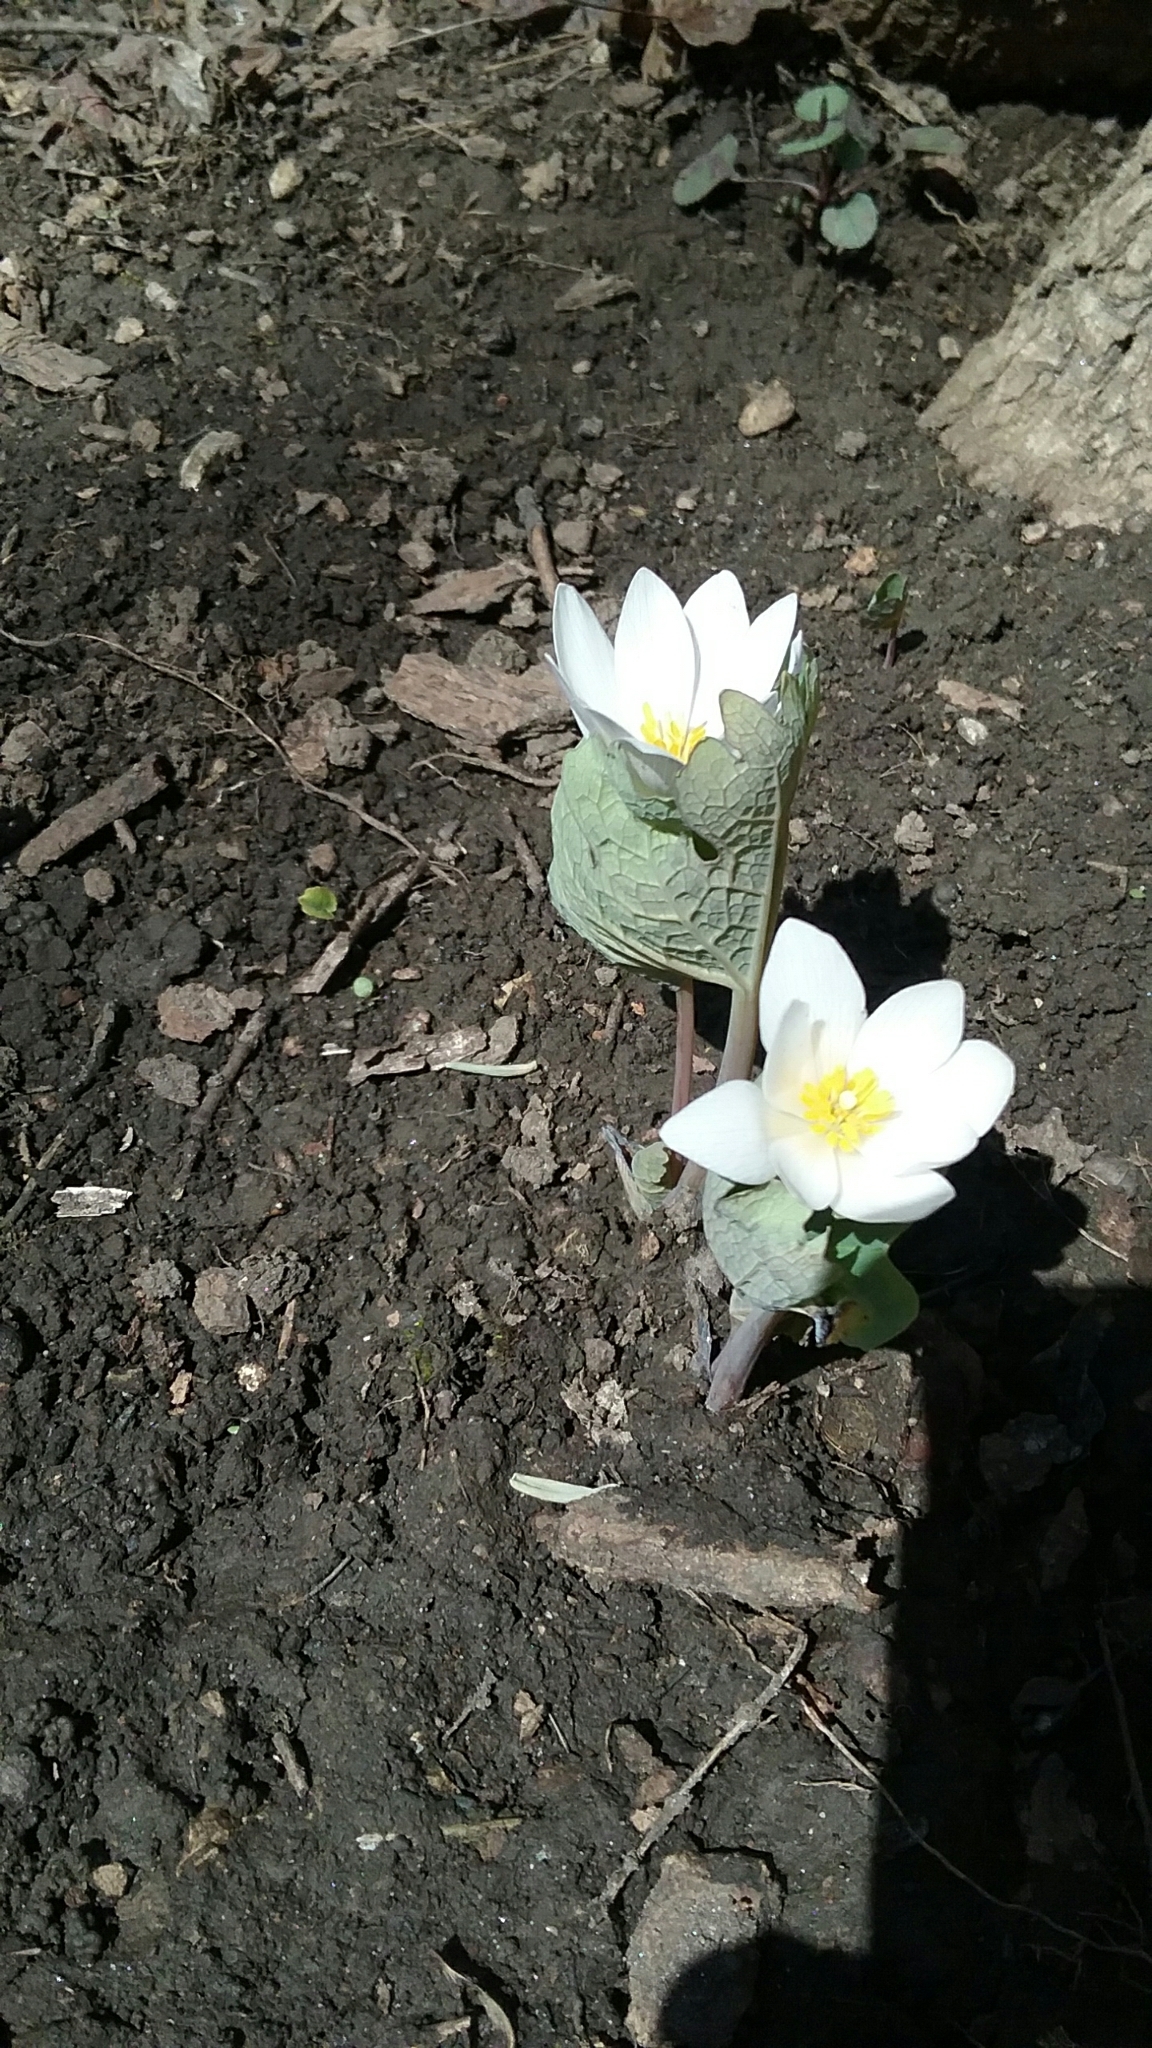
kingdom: Plantae
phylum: Tracheophyta
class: Magnoliopsida
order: Ranunculales
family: Papaveraceae
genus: Sanguinaria
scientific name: Sanguinaria canadensis
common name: Bloodroot
